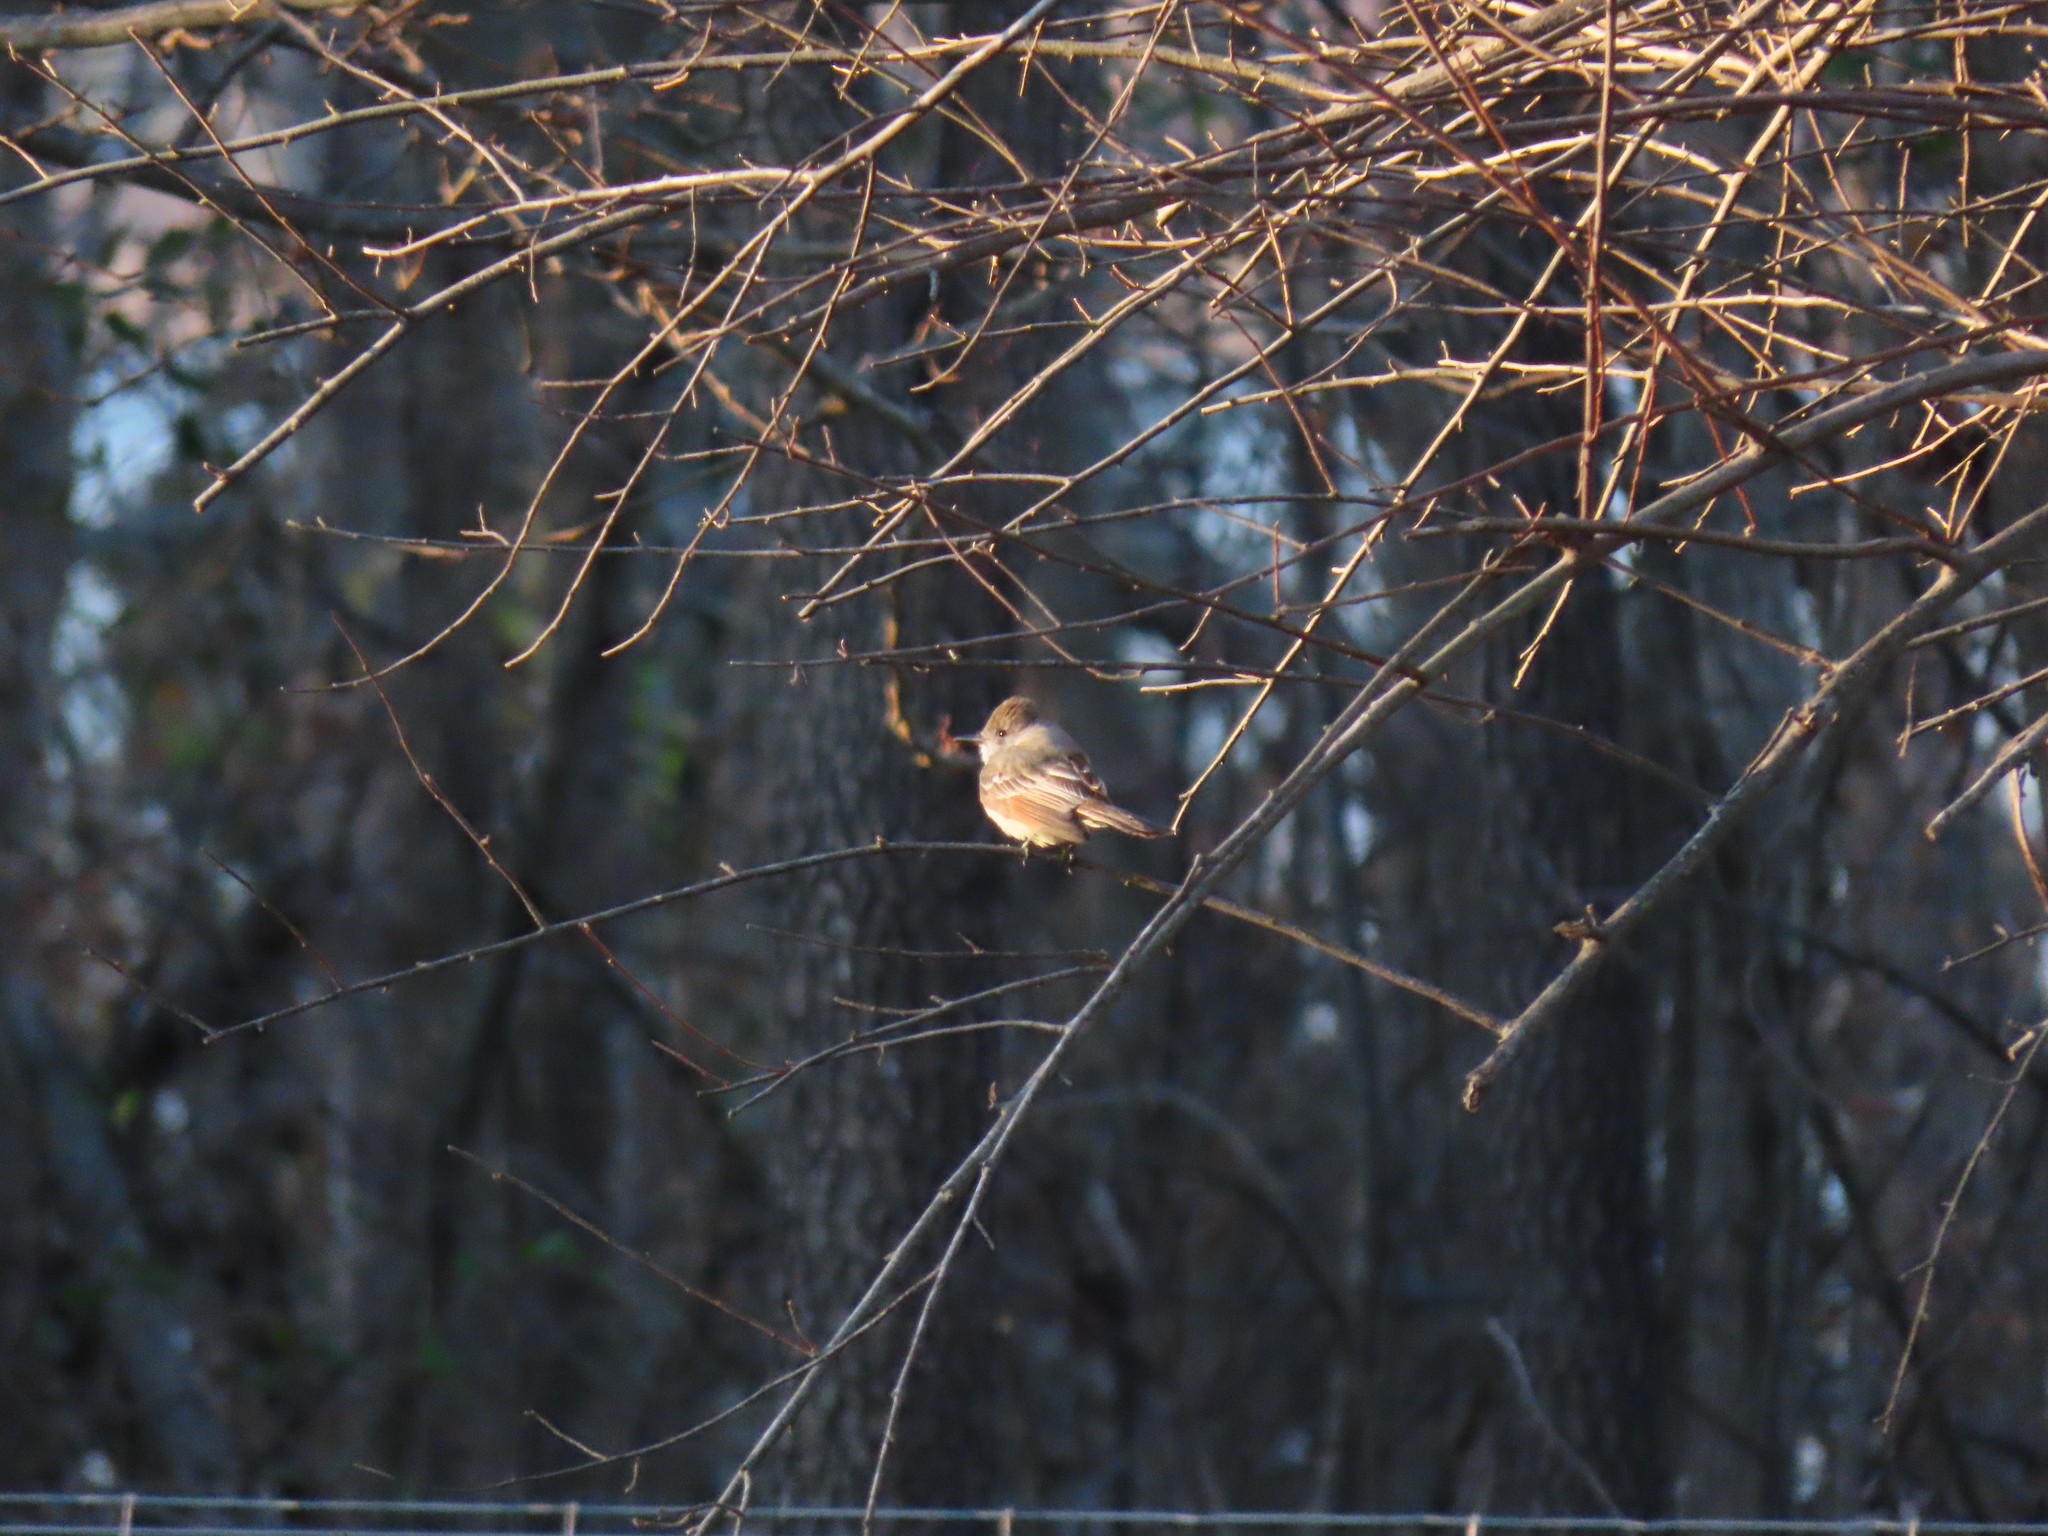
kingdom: Animalia
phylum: Chordata
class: Aves
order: Passeriformes
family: Tyrannidae
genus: Myiarchus
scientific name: Myiarchus cinerascens
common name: Ash-throated flycatcher
